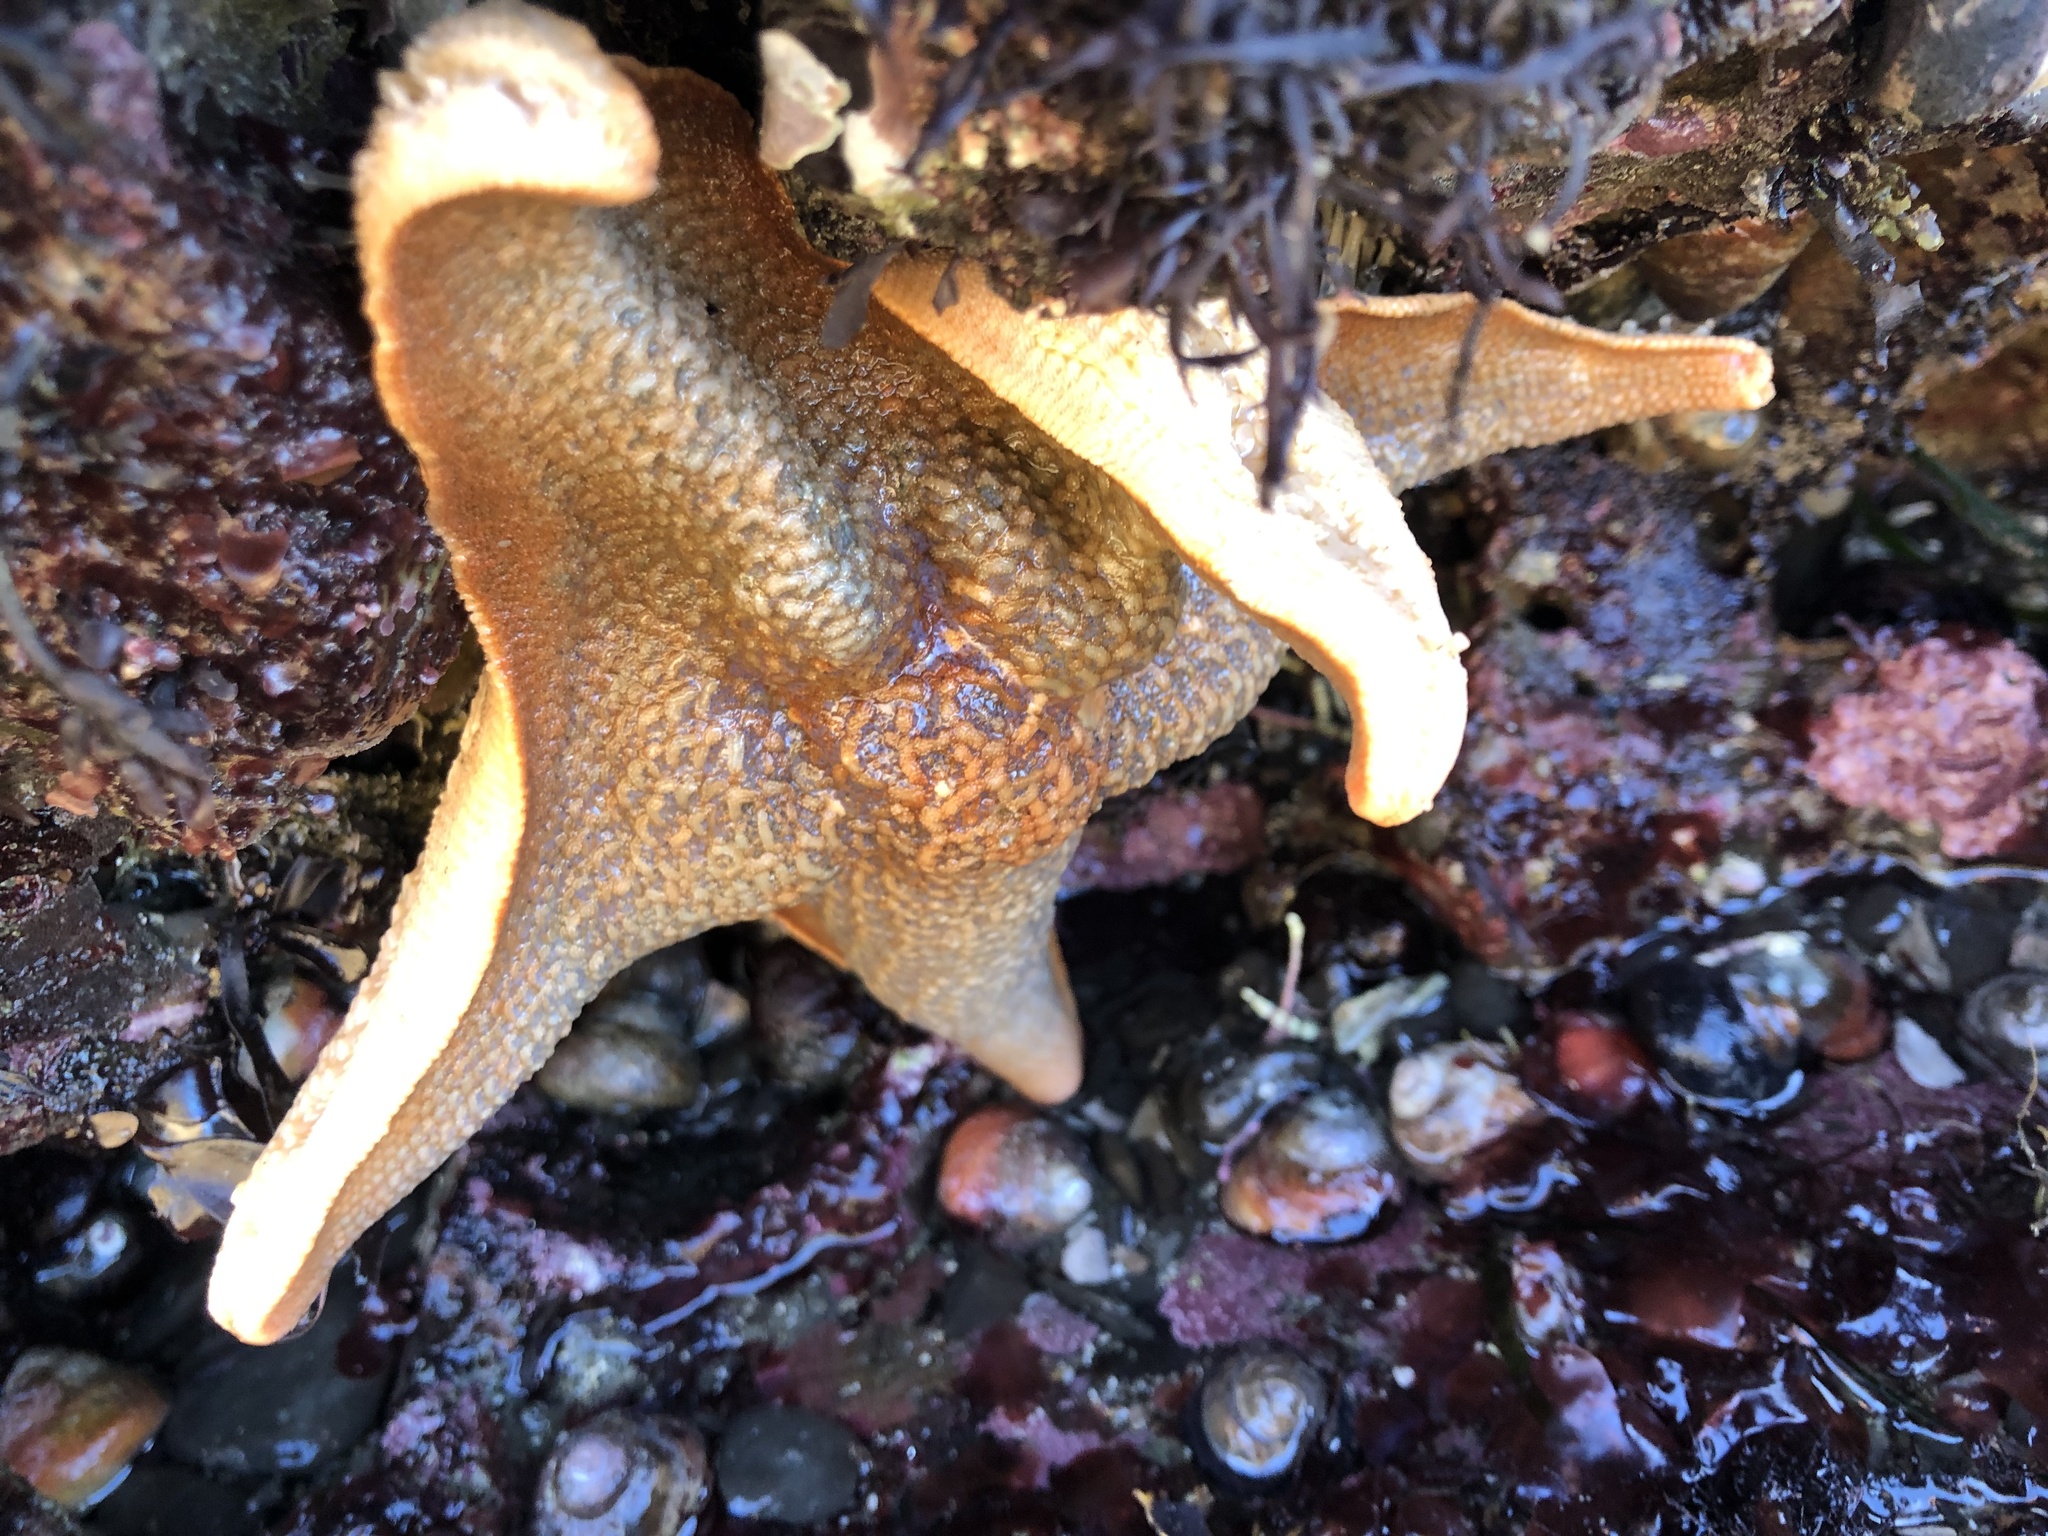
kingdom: Animalia
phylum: Echinodermata
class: Asteroidea
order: Valvatida
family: Asterinidae
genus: Patiria
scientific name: Patiria miniata
